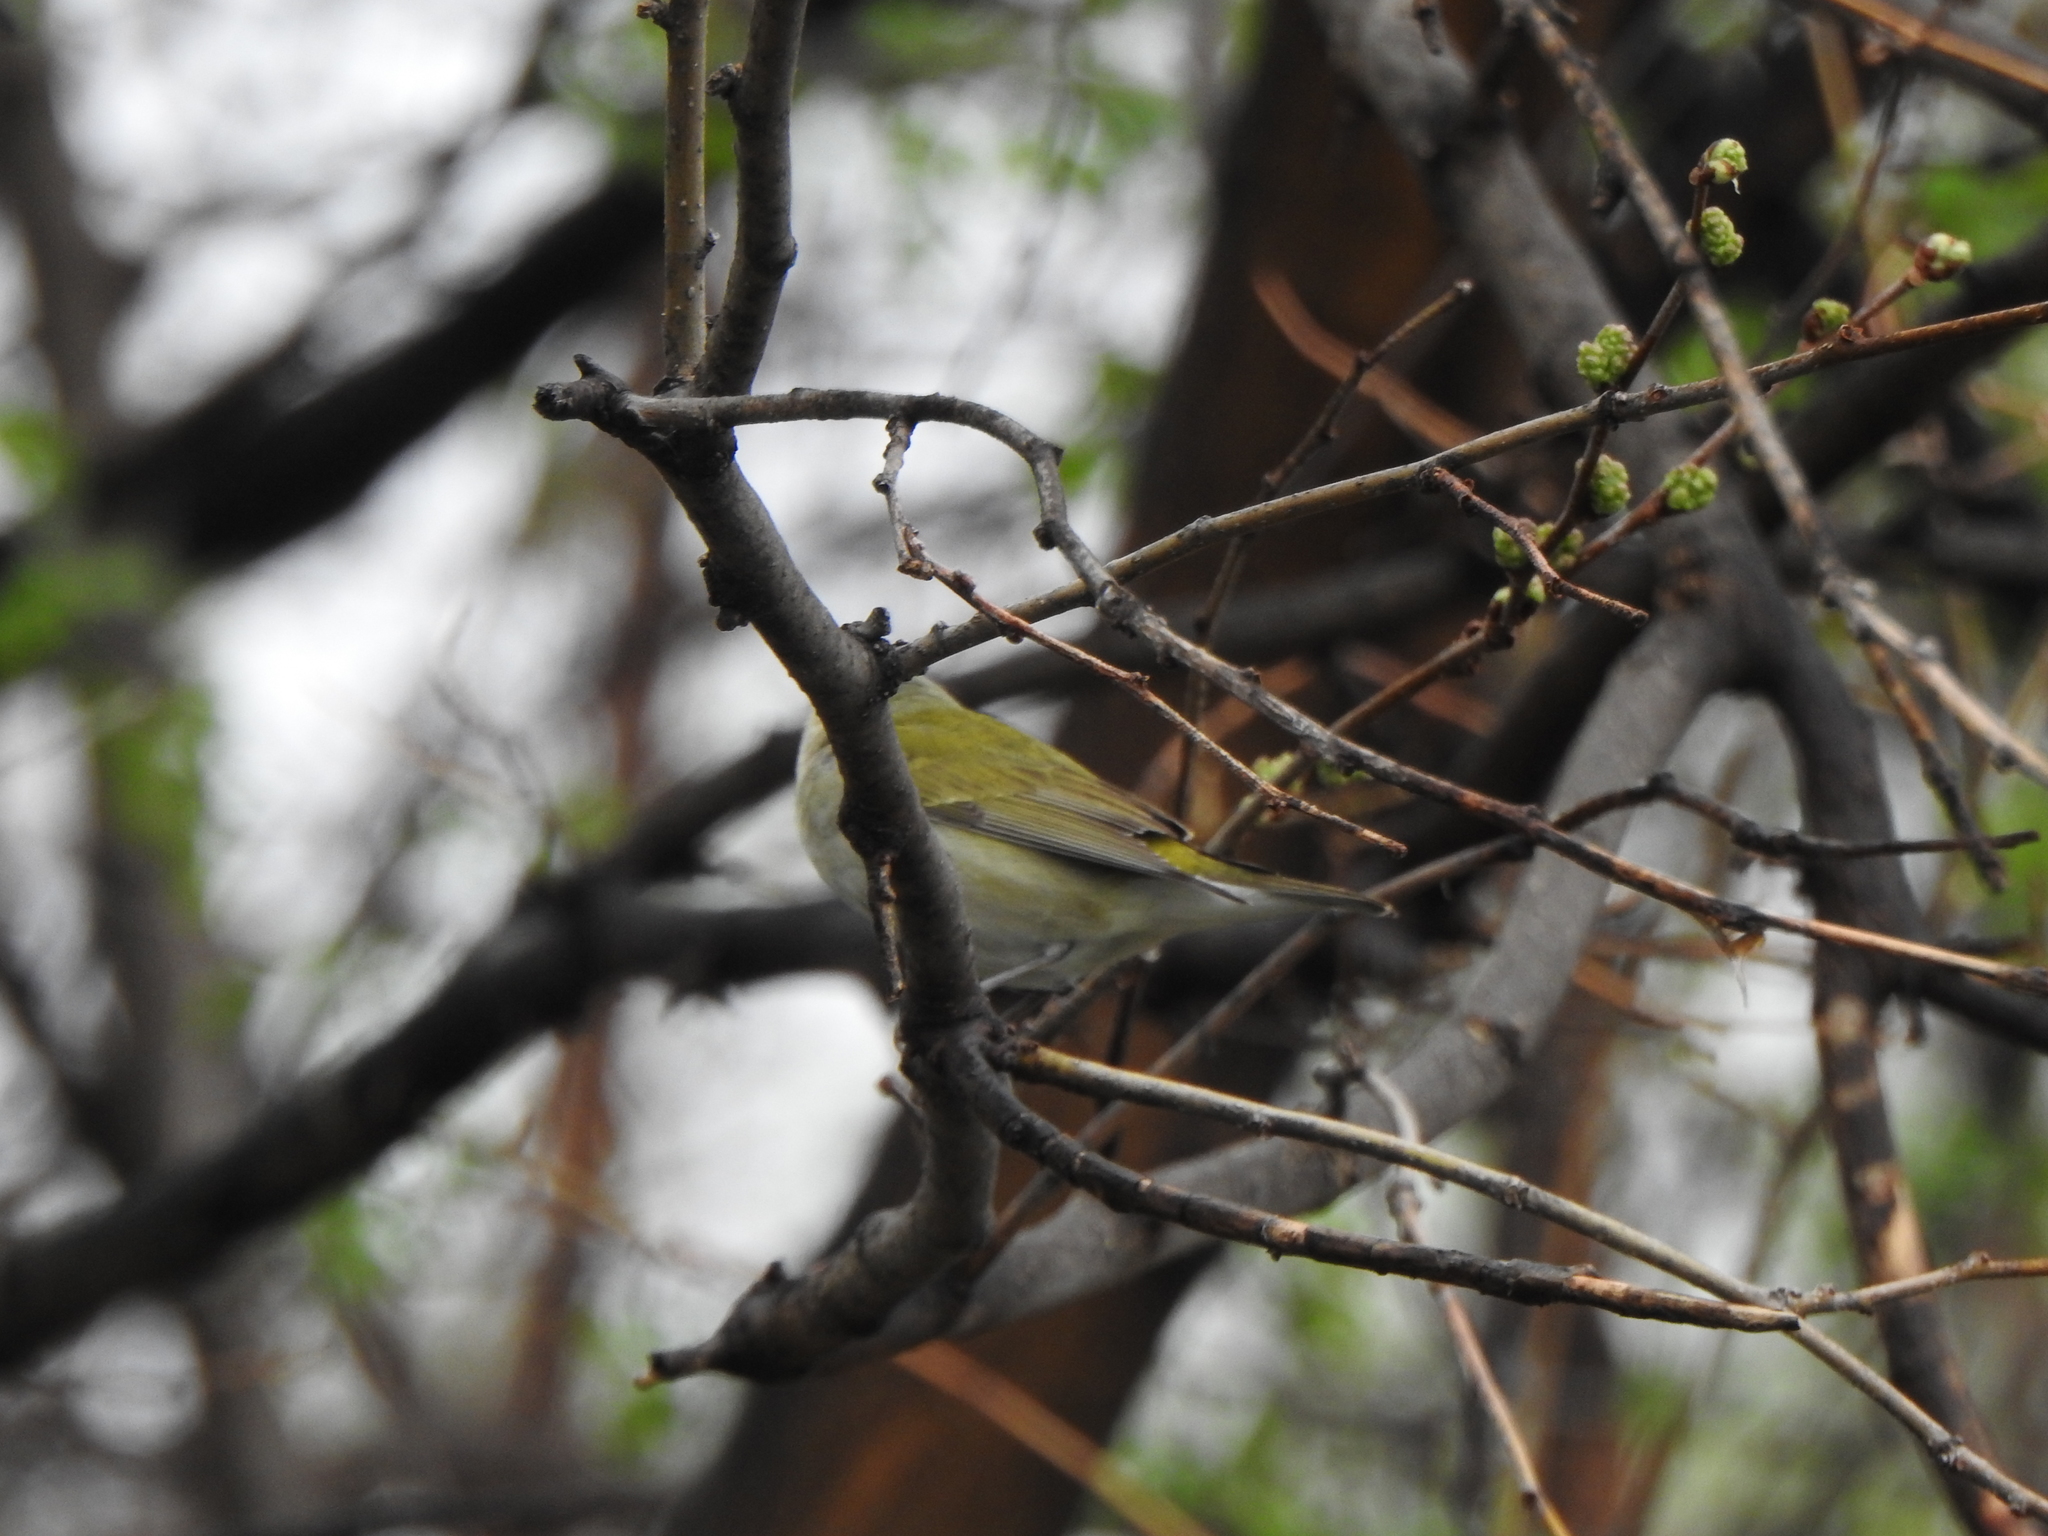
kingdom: Animalia
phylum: Chordata
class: Aves
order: Passeriformes
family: Parulidae
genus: Leiothlypis
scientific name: Leiothlypis peregrina
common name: Tennessee warbler
